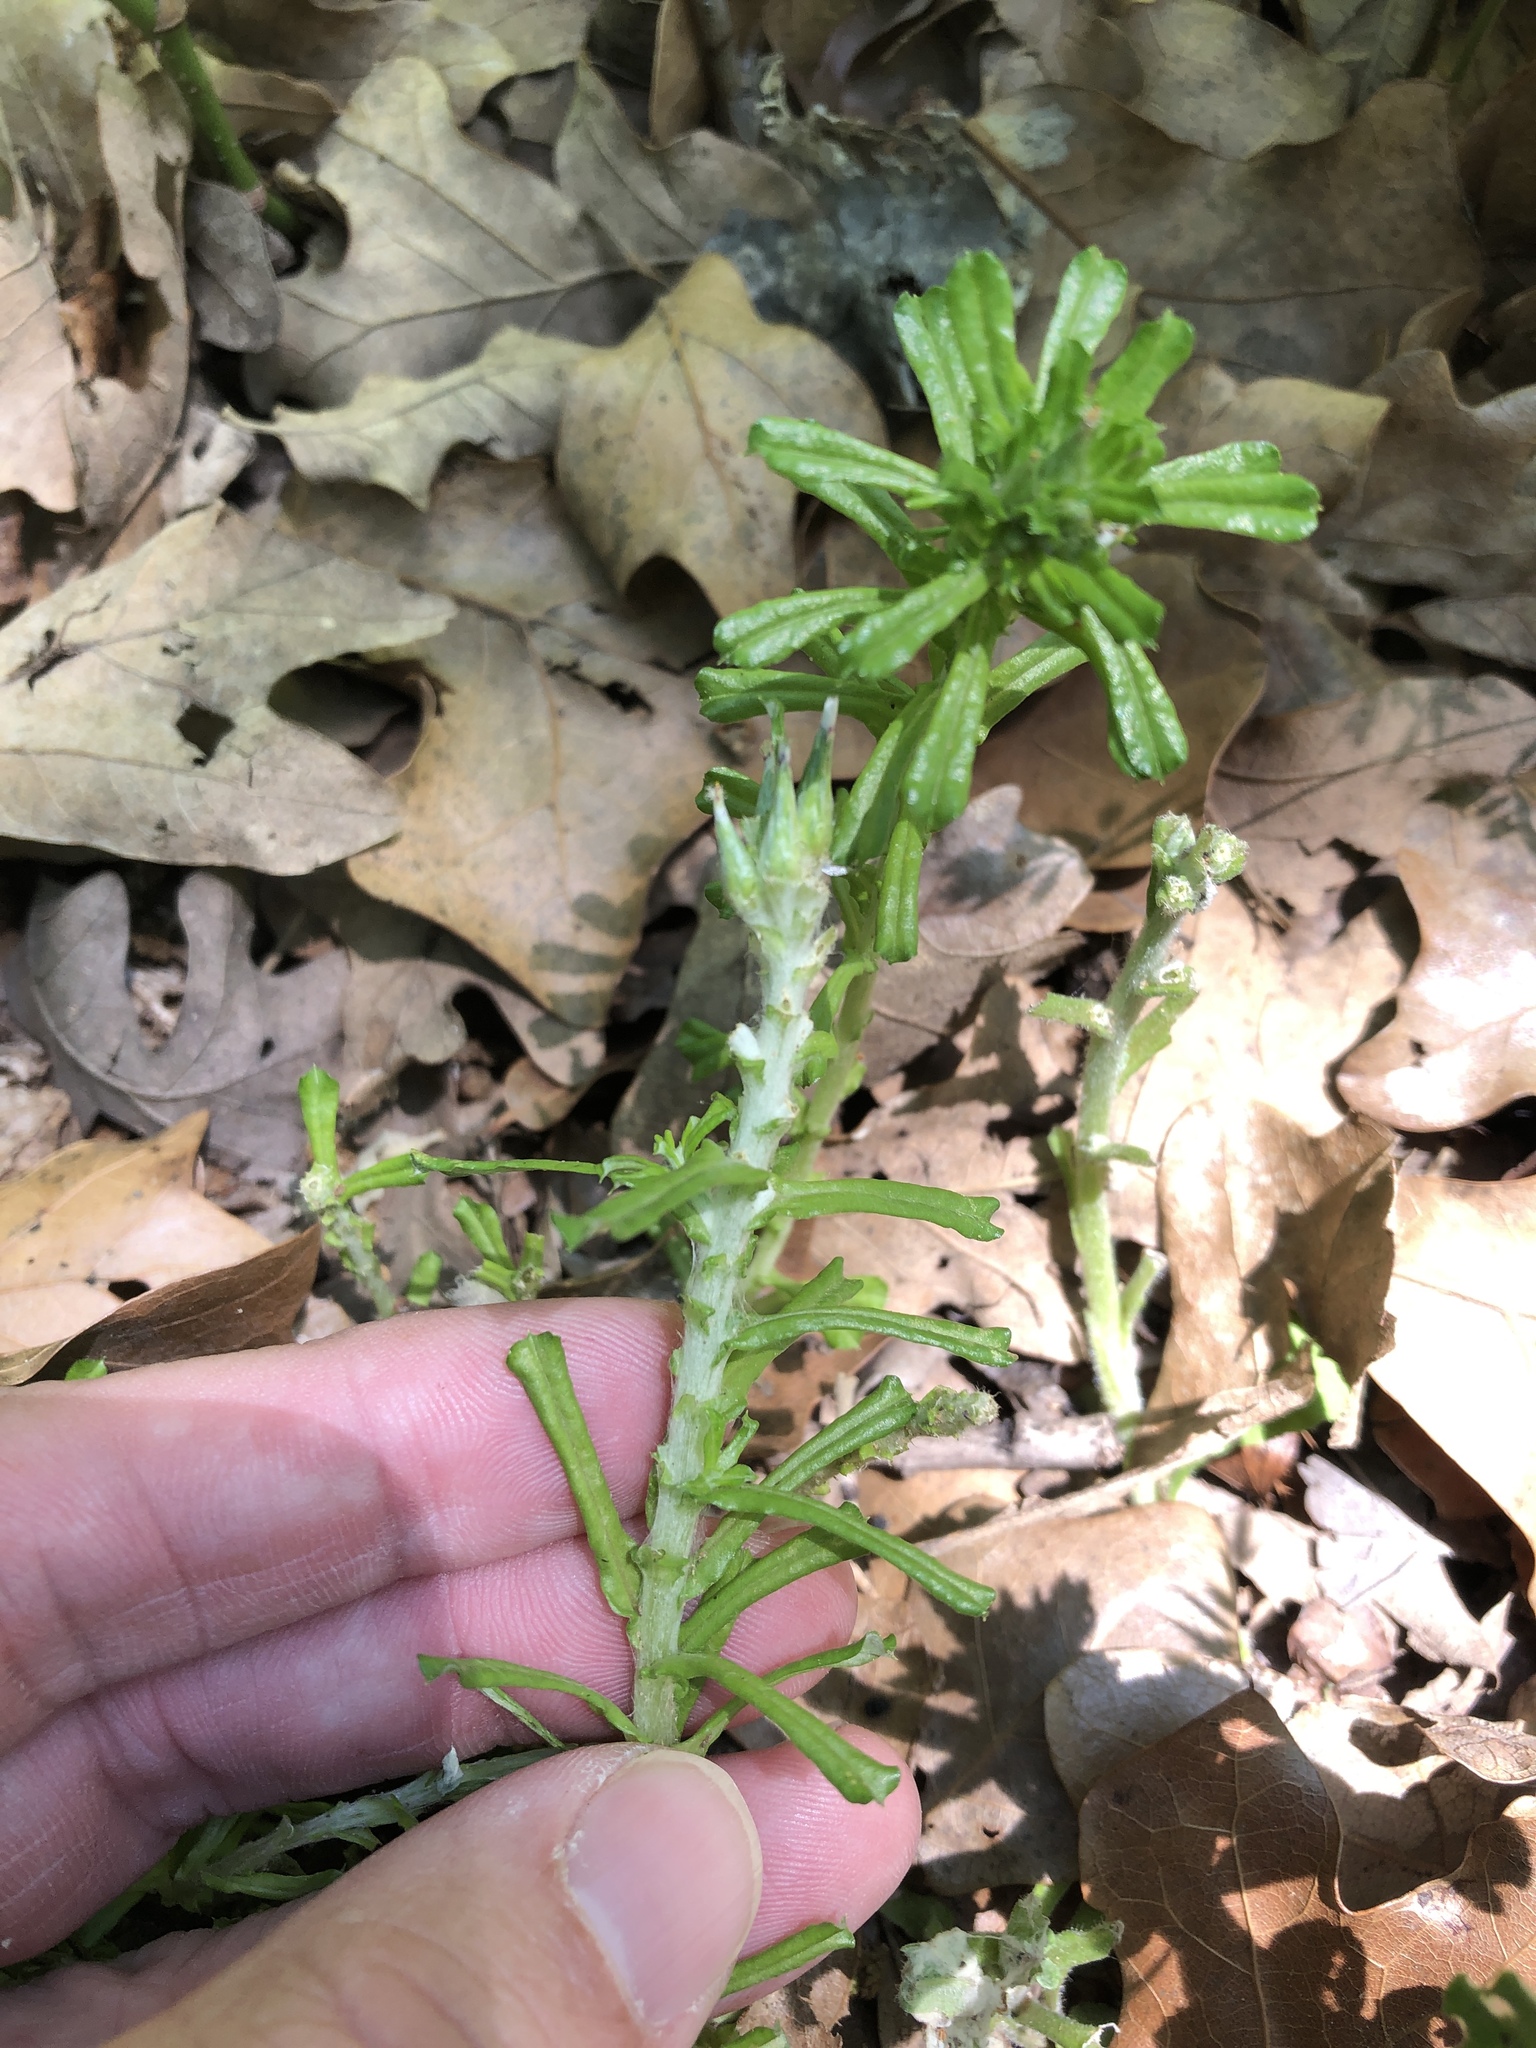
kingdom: Plantae
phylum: Tracheophyta
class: Magnoliopsida
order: Asterales
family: Asteraceae
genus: Facelis
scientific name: Facelis retusa
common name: Annual trampweed
